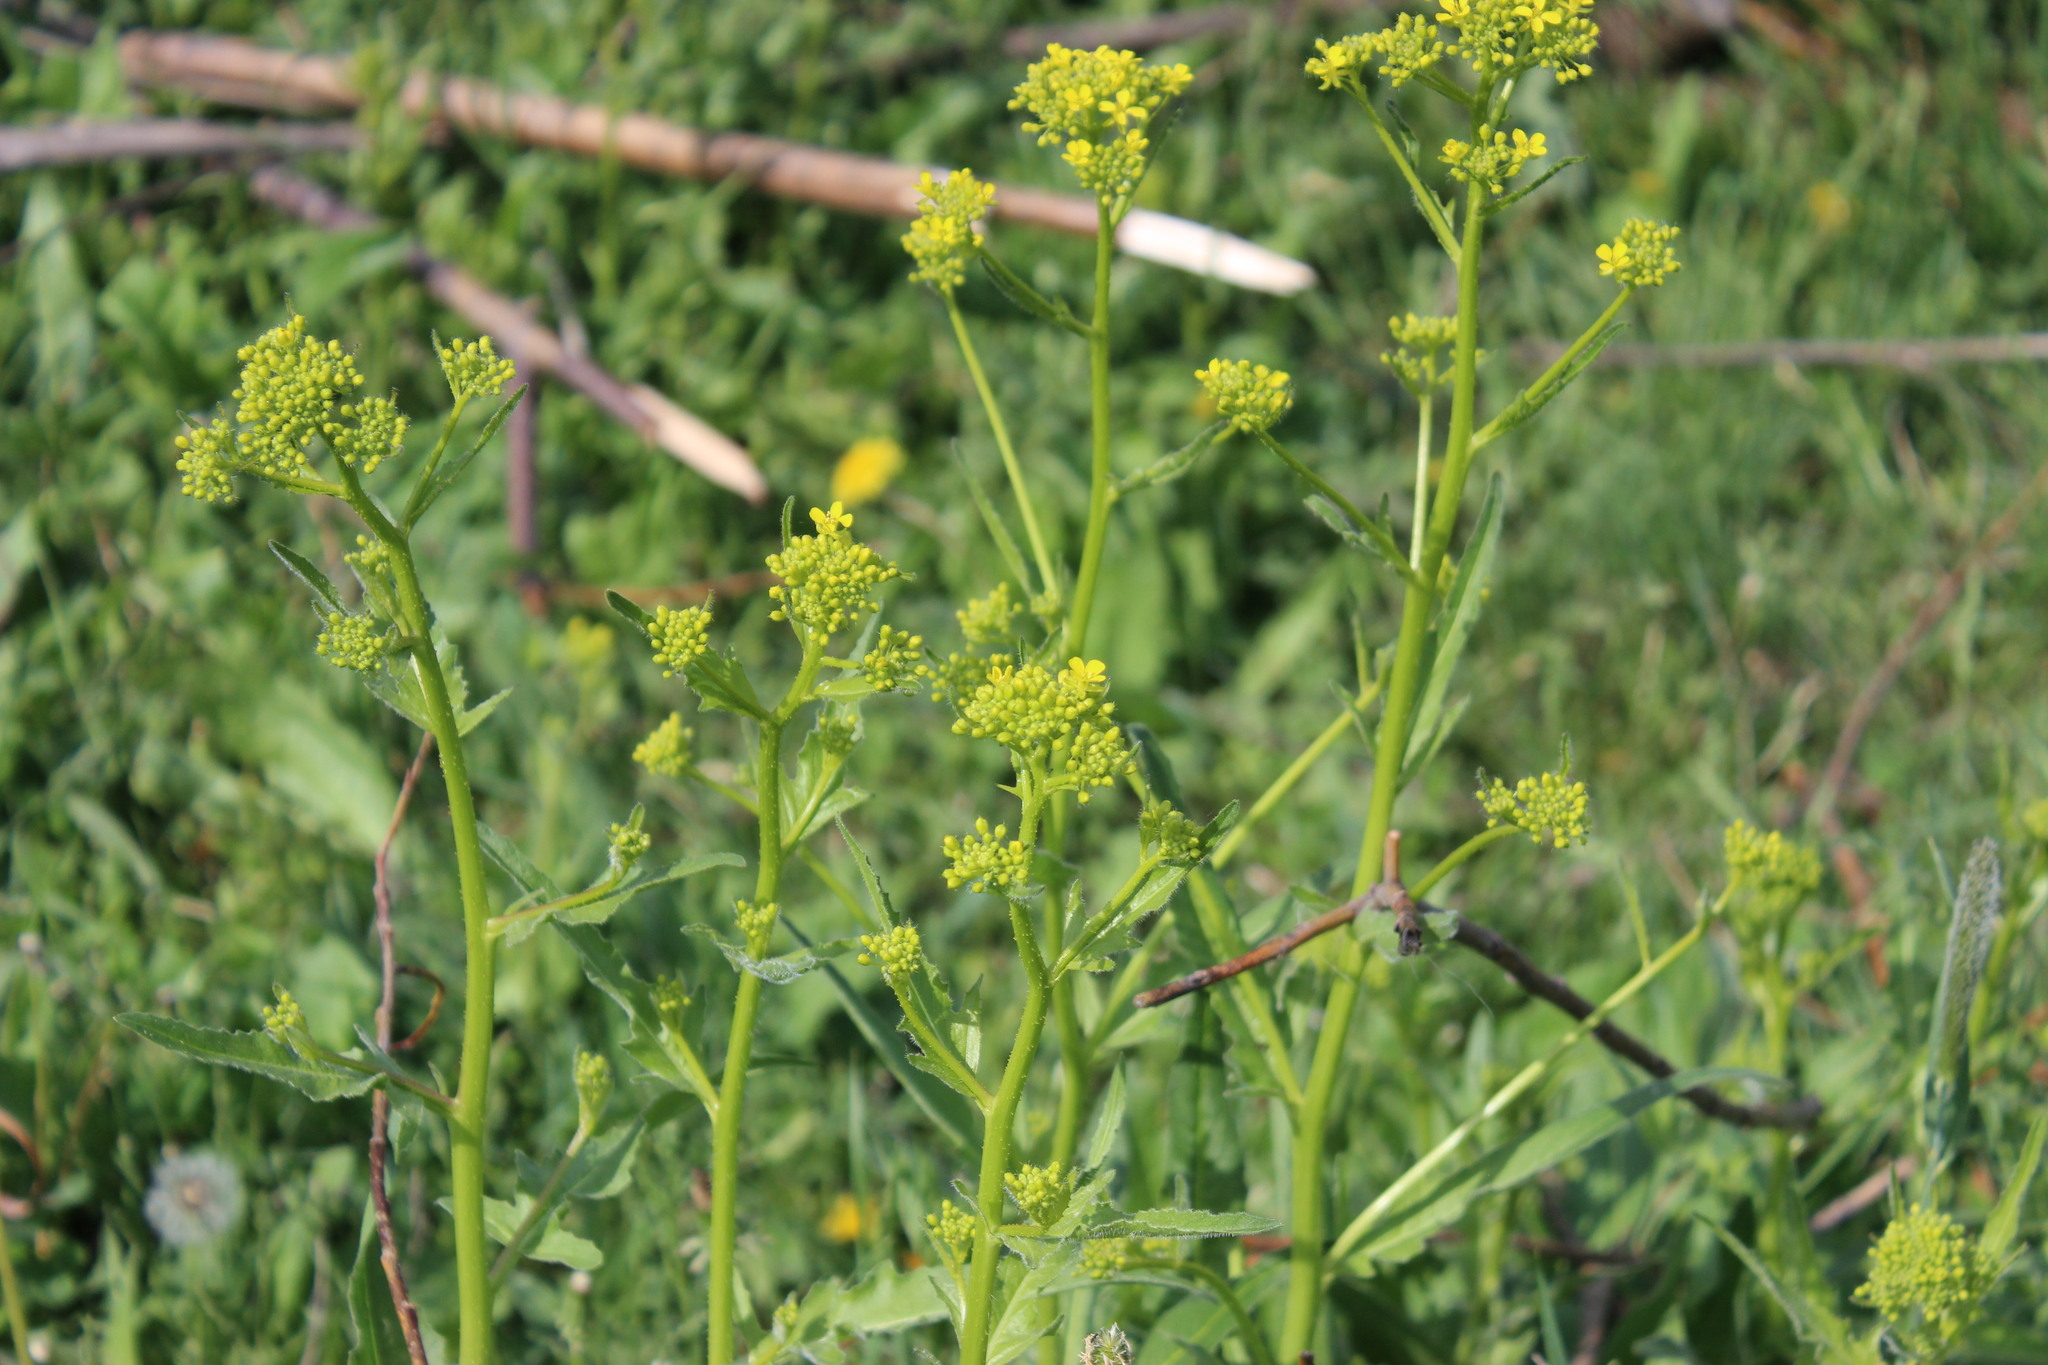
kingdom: Plantae
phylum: Tracheophyta
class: Magnoliopsida
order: Brassicales
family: Brassicaceae
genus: Bunias
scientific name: Bunias orientalis
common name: Warty-cabbage
